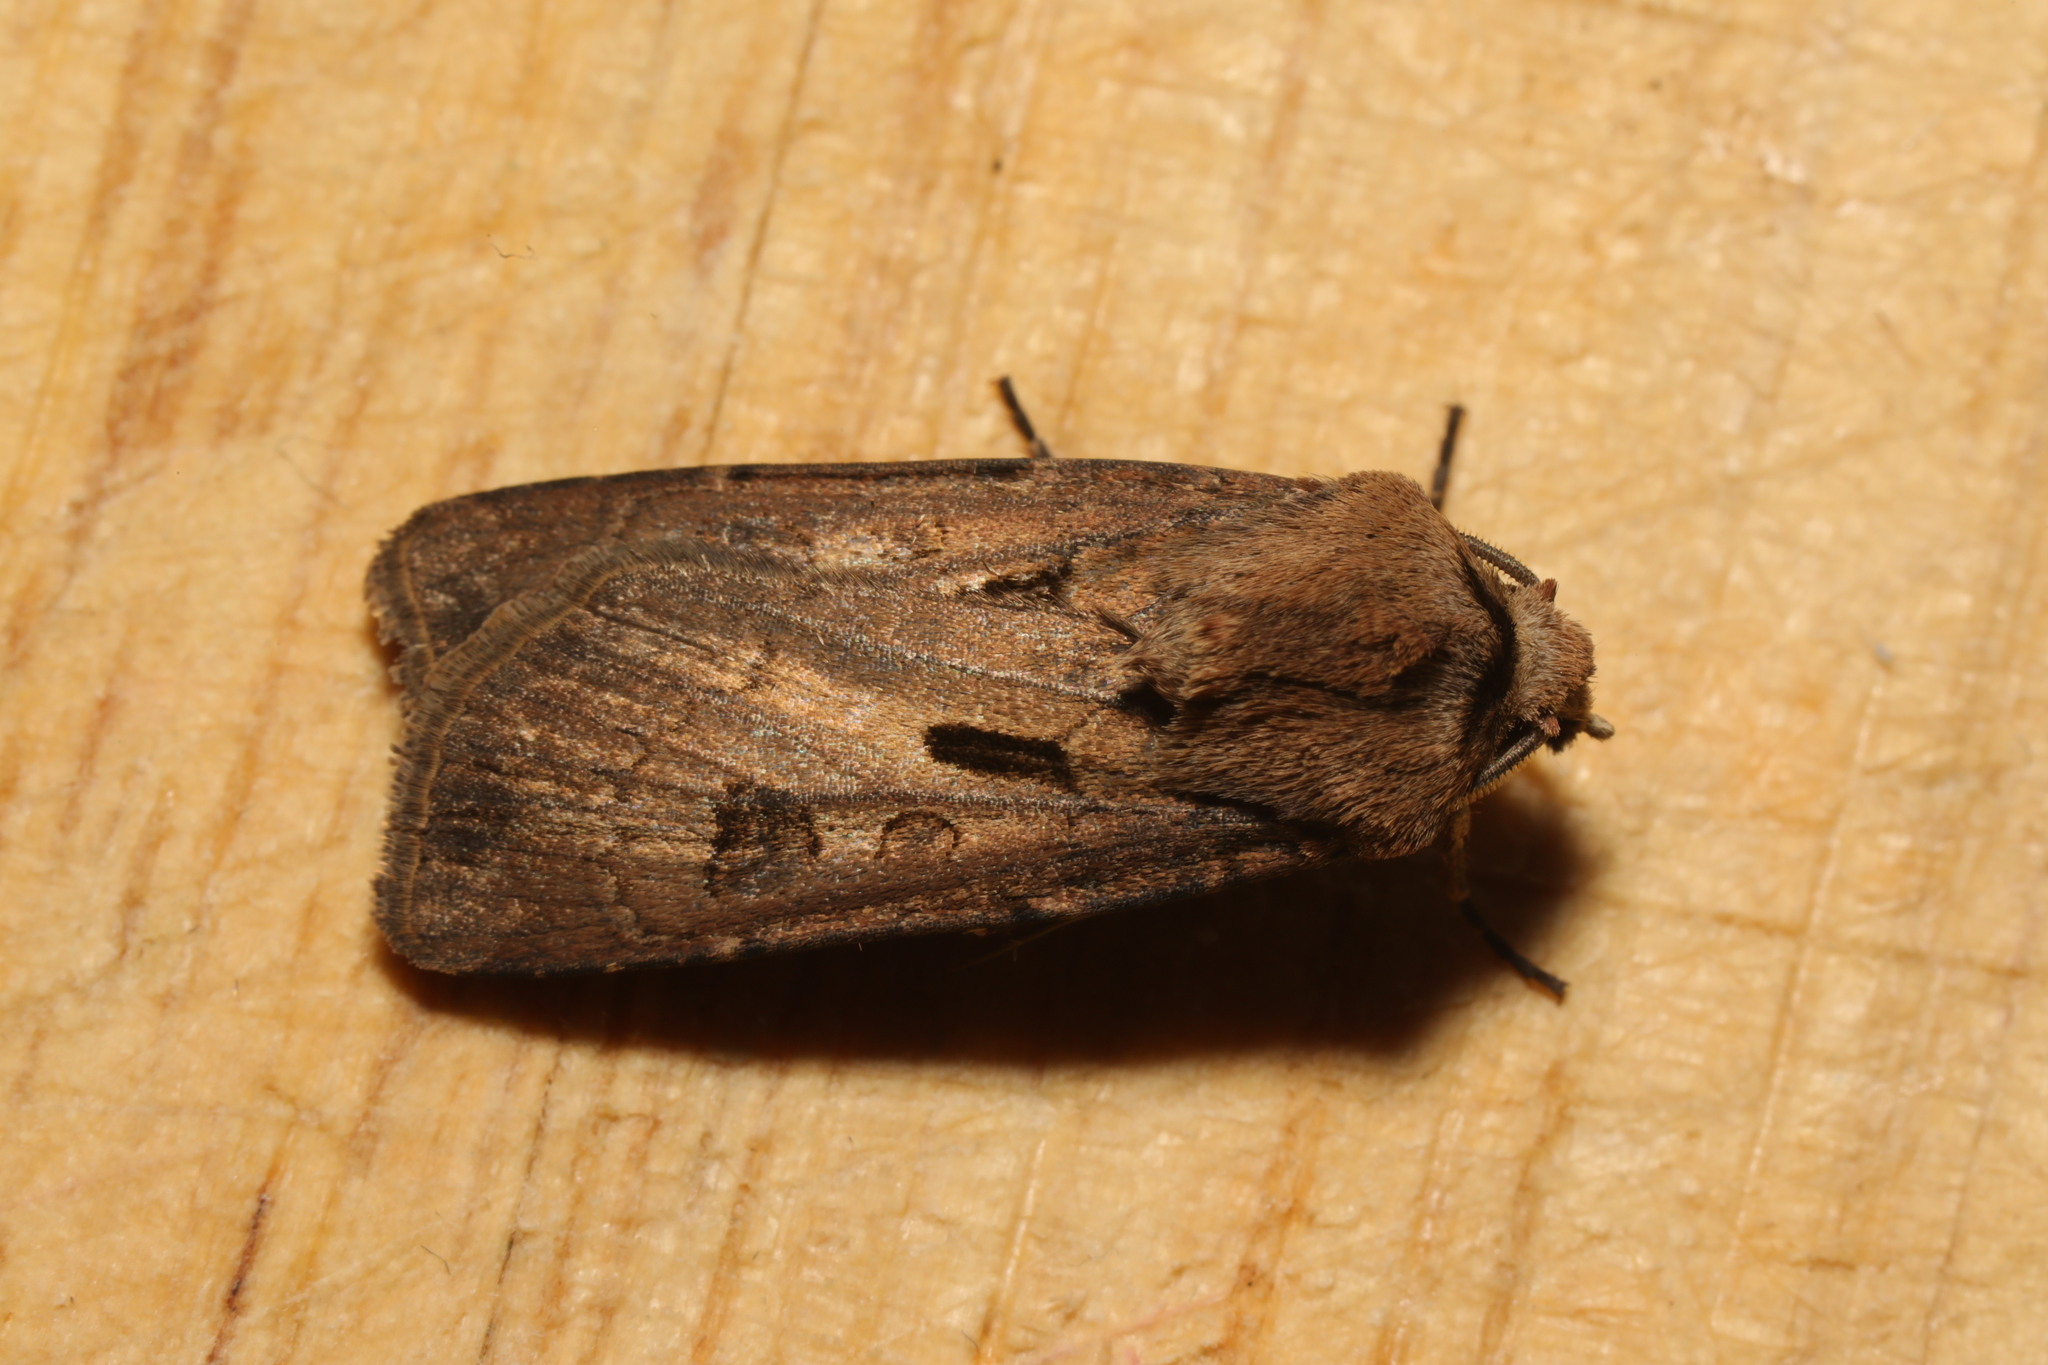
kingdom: Animalia
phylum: Arthropoda
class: Insecta
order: Lepidoptera
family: Noctuidae
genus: Agrotis
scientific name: Agrotis exclamationis
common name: Heart and dart
